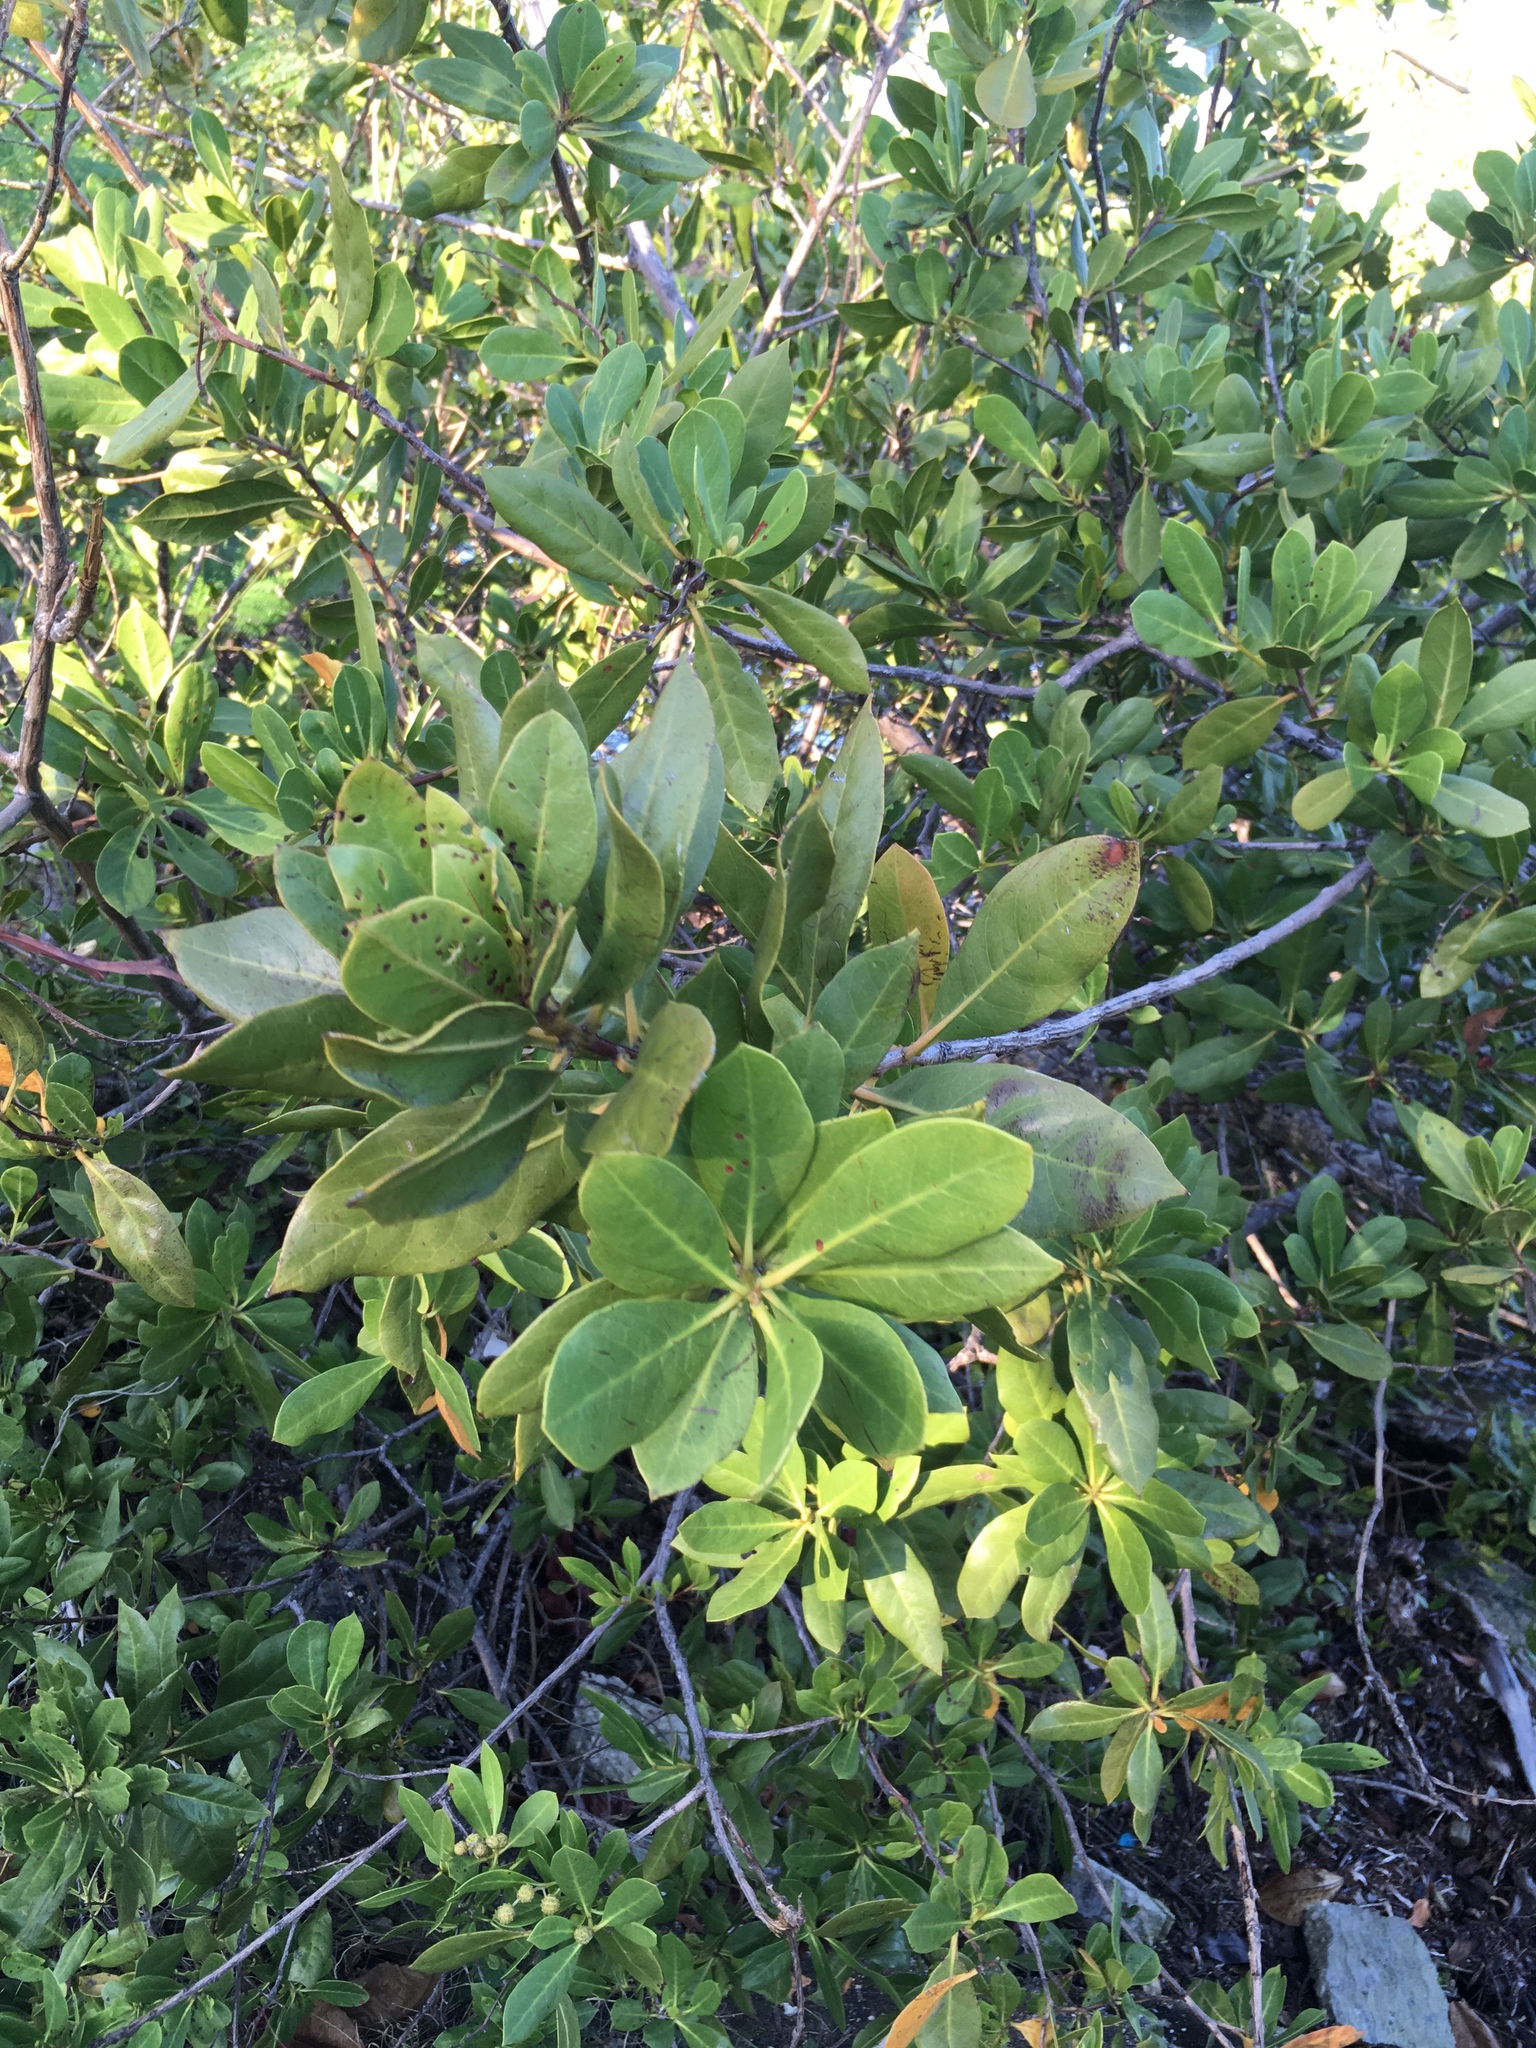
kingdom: Plantae
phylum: Tracheophyta
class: Magnoliopsida
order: Myrtales
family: Combretaceae
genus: Conocarpus
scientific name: Conocarpus erectus
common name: Button mangrove
